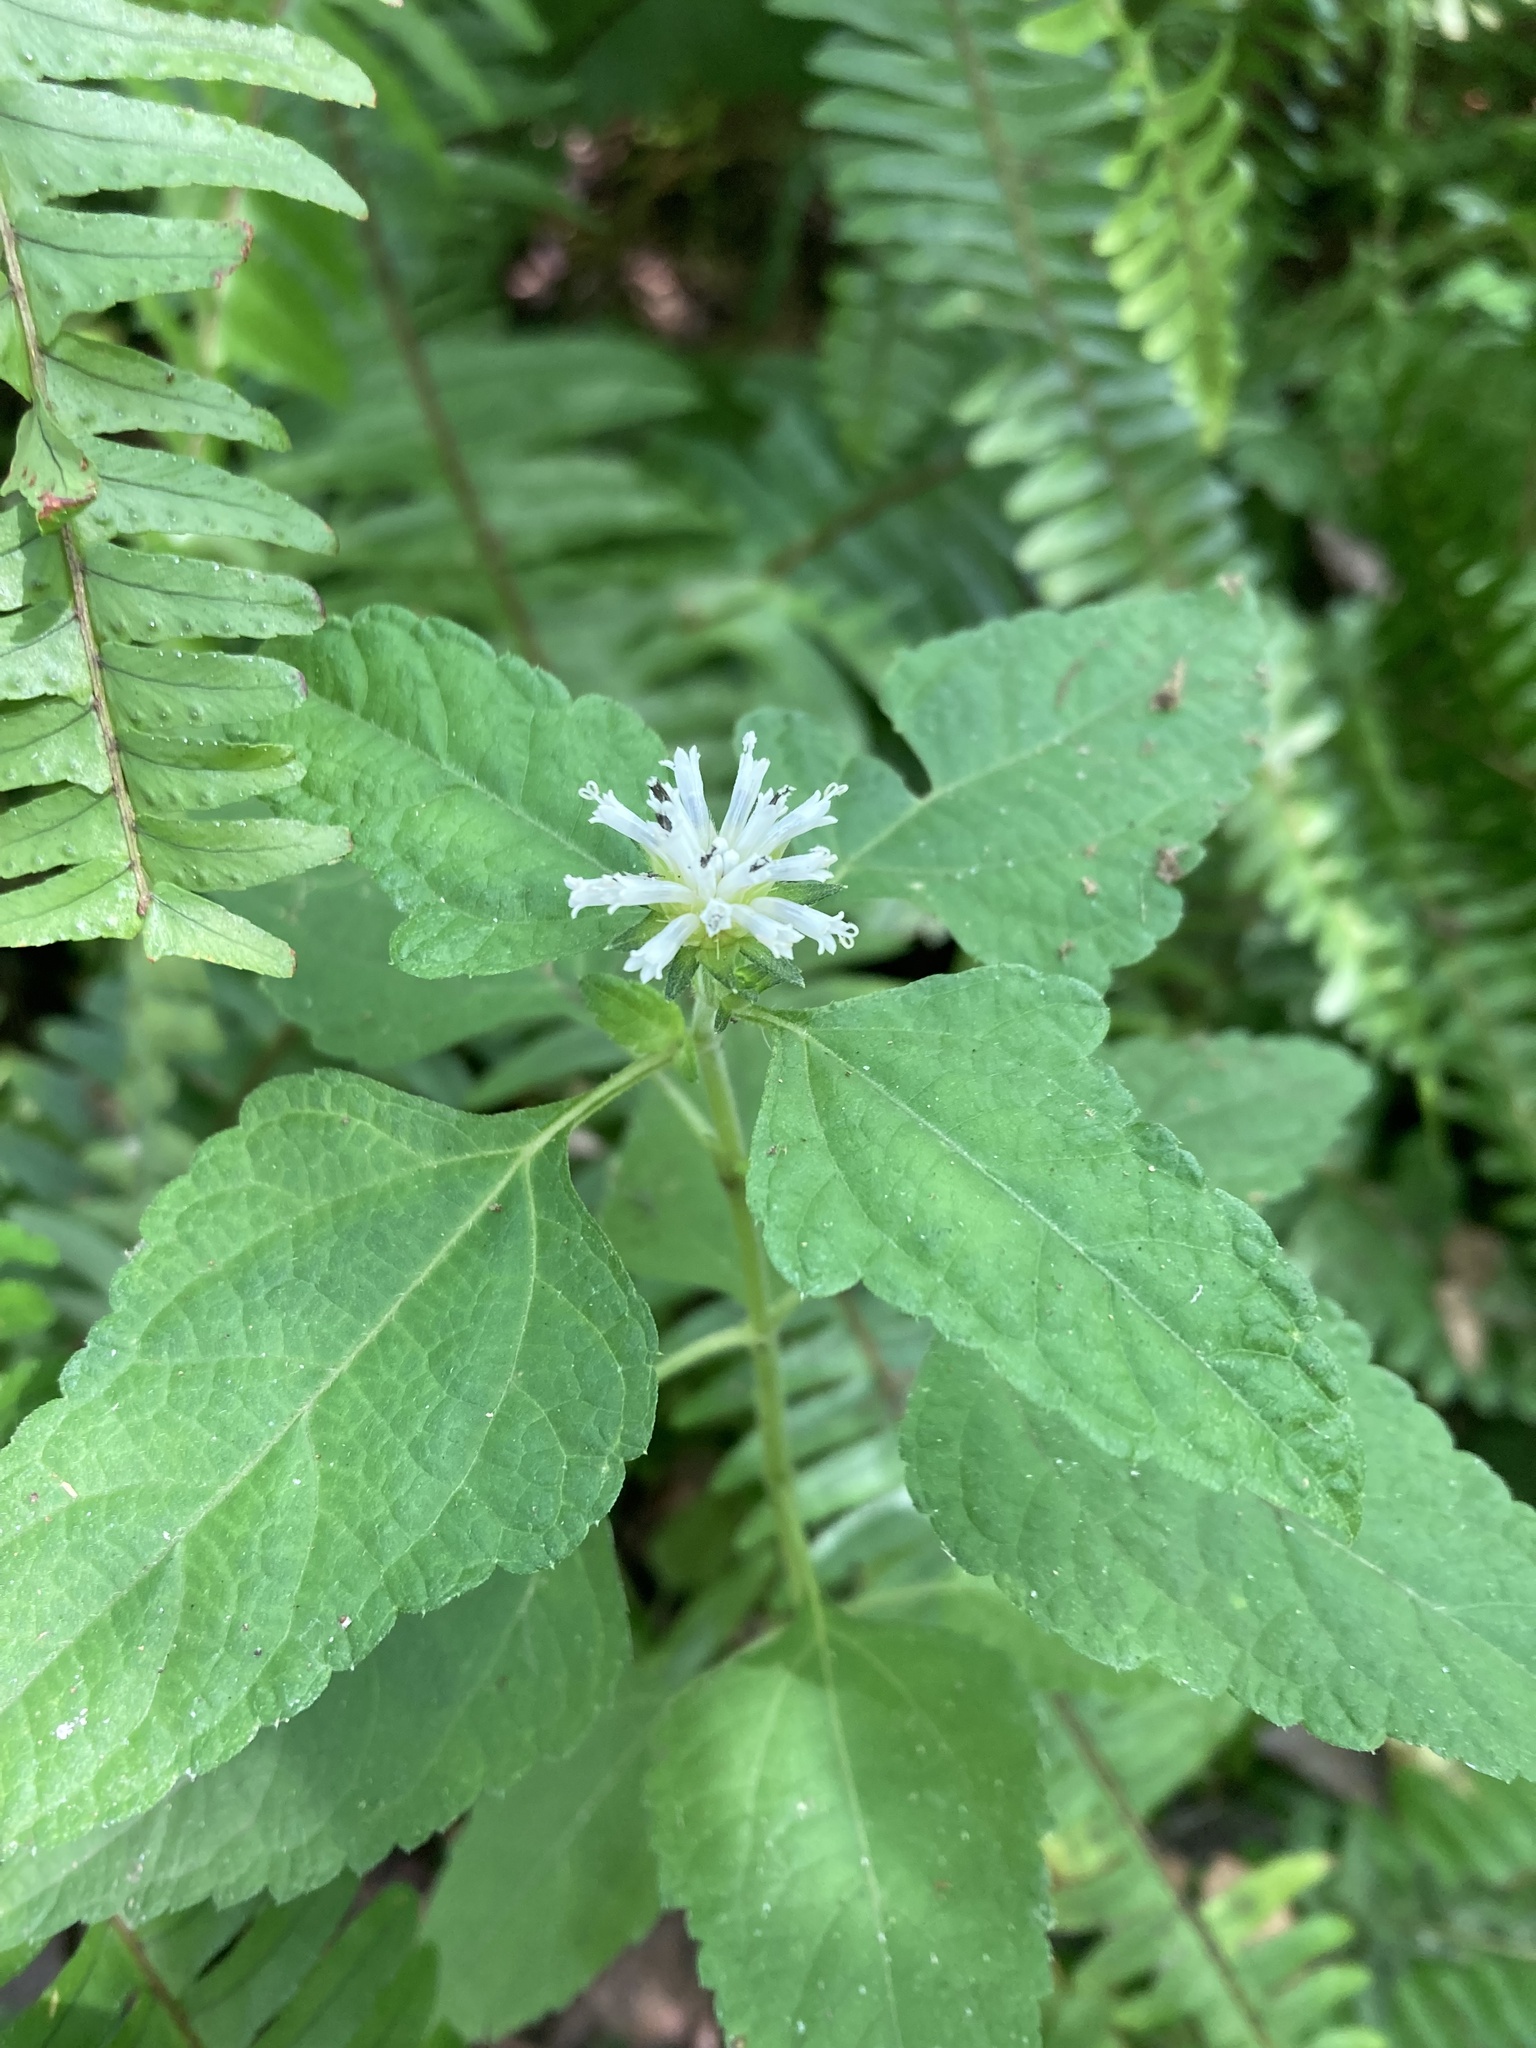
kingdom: Plantae
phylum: Tracheophyta
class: Magnoliopsida
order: Asterales
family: Asteraceae
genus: Melanthera
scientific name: Melanthera nivea
